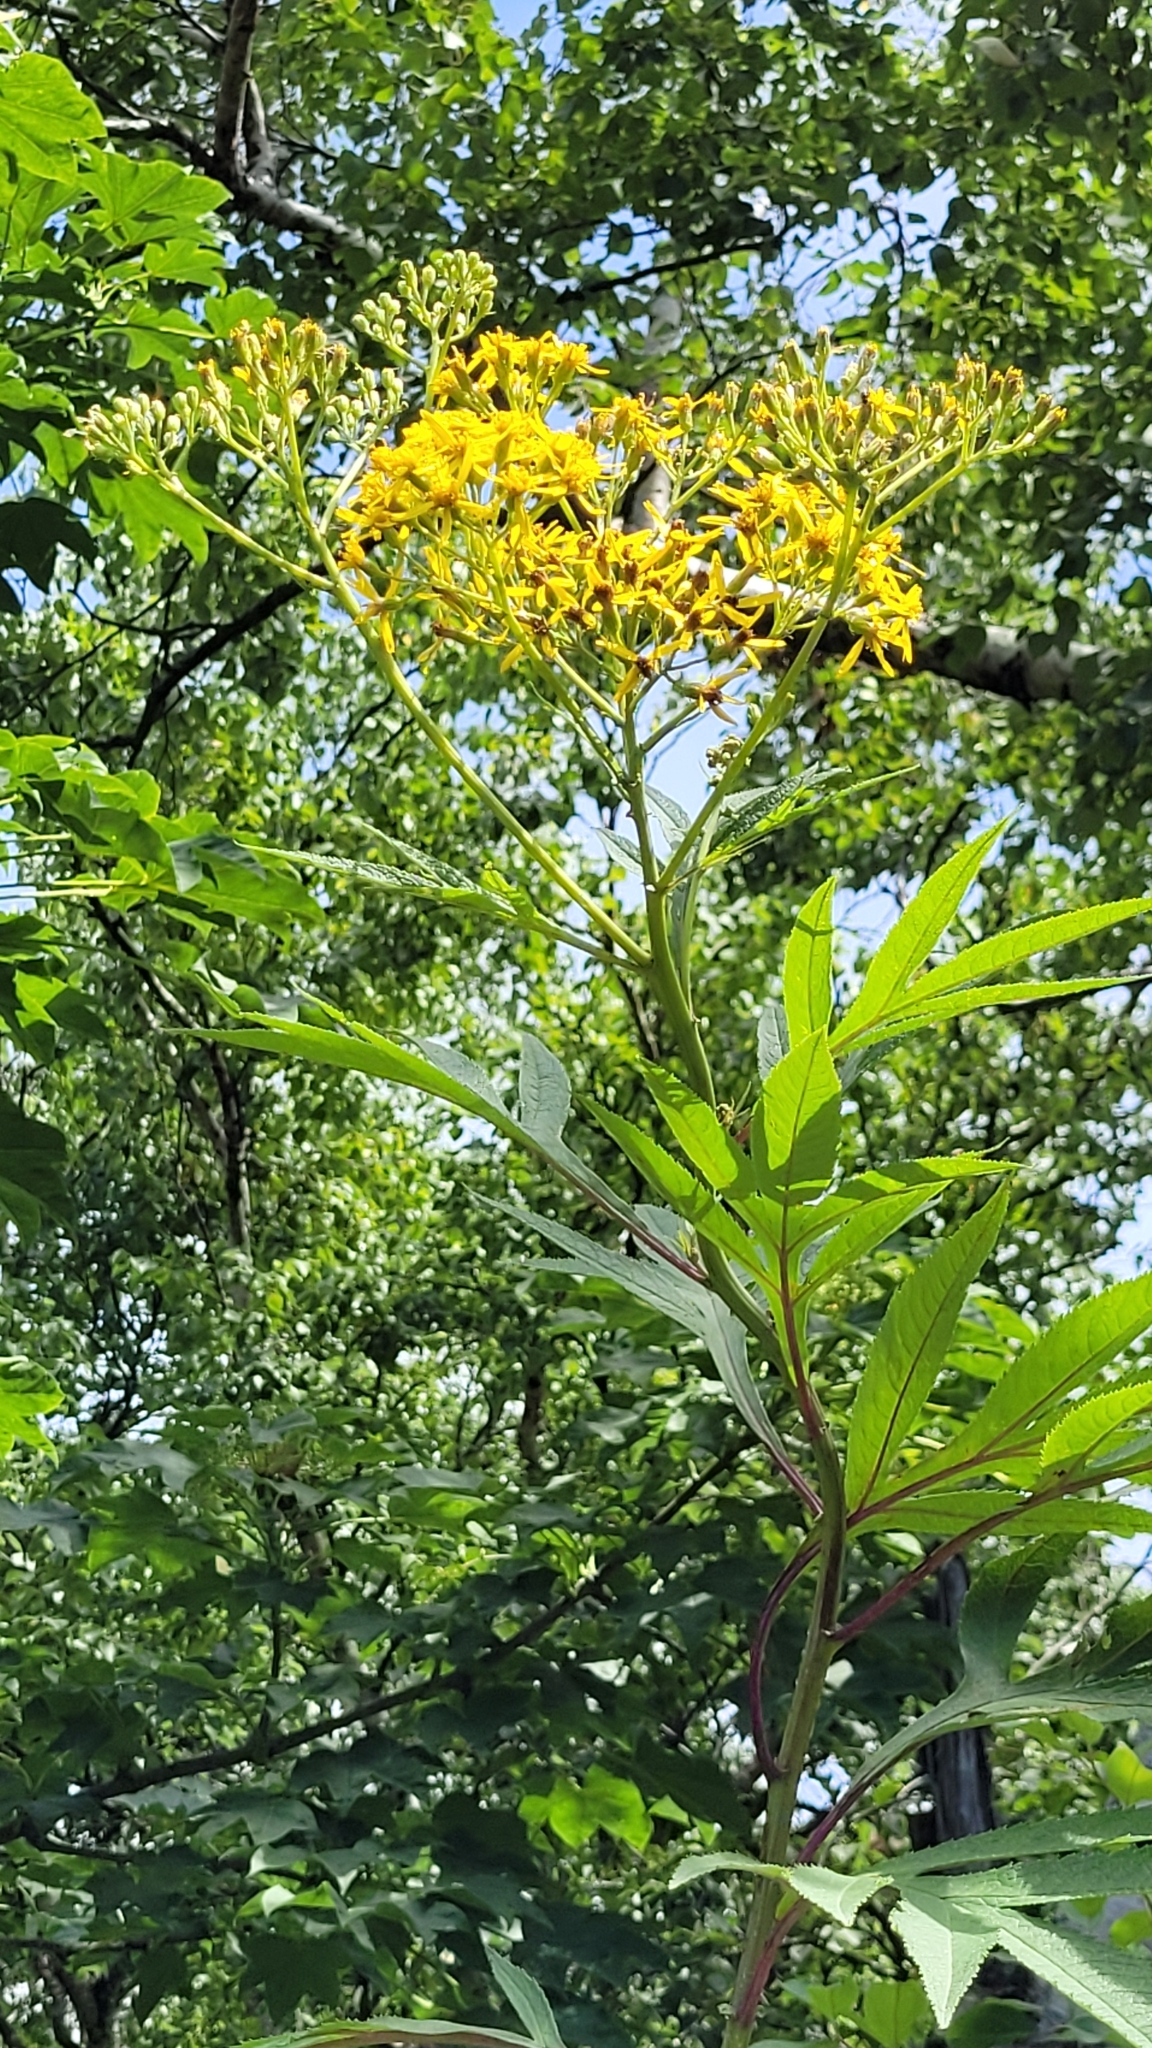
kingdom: Plantae
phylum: Tracheophyta
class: Magnoliopsida
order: Asterales
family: Asteraceae
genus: Jacobaea
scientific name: Jacobaea cannabifolia
